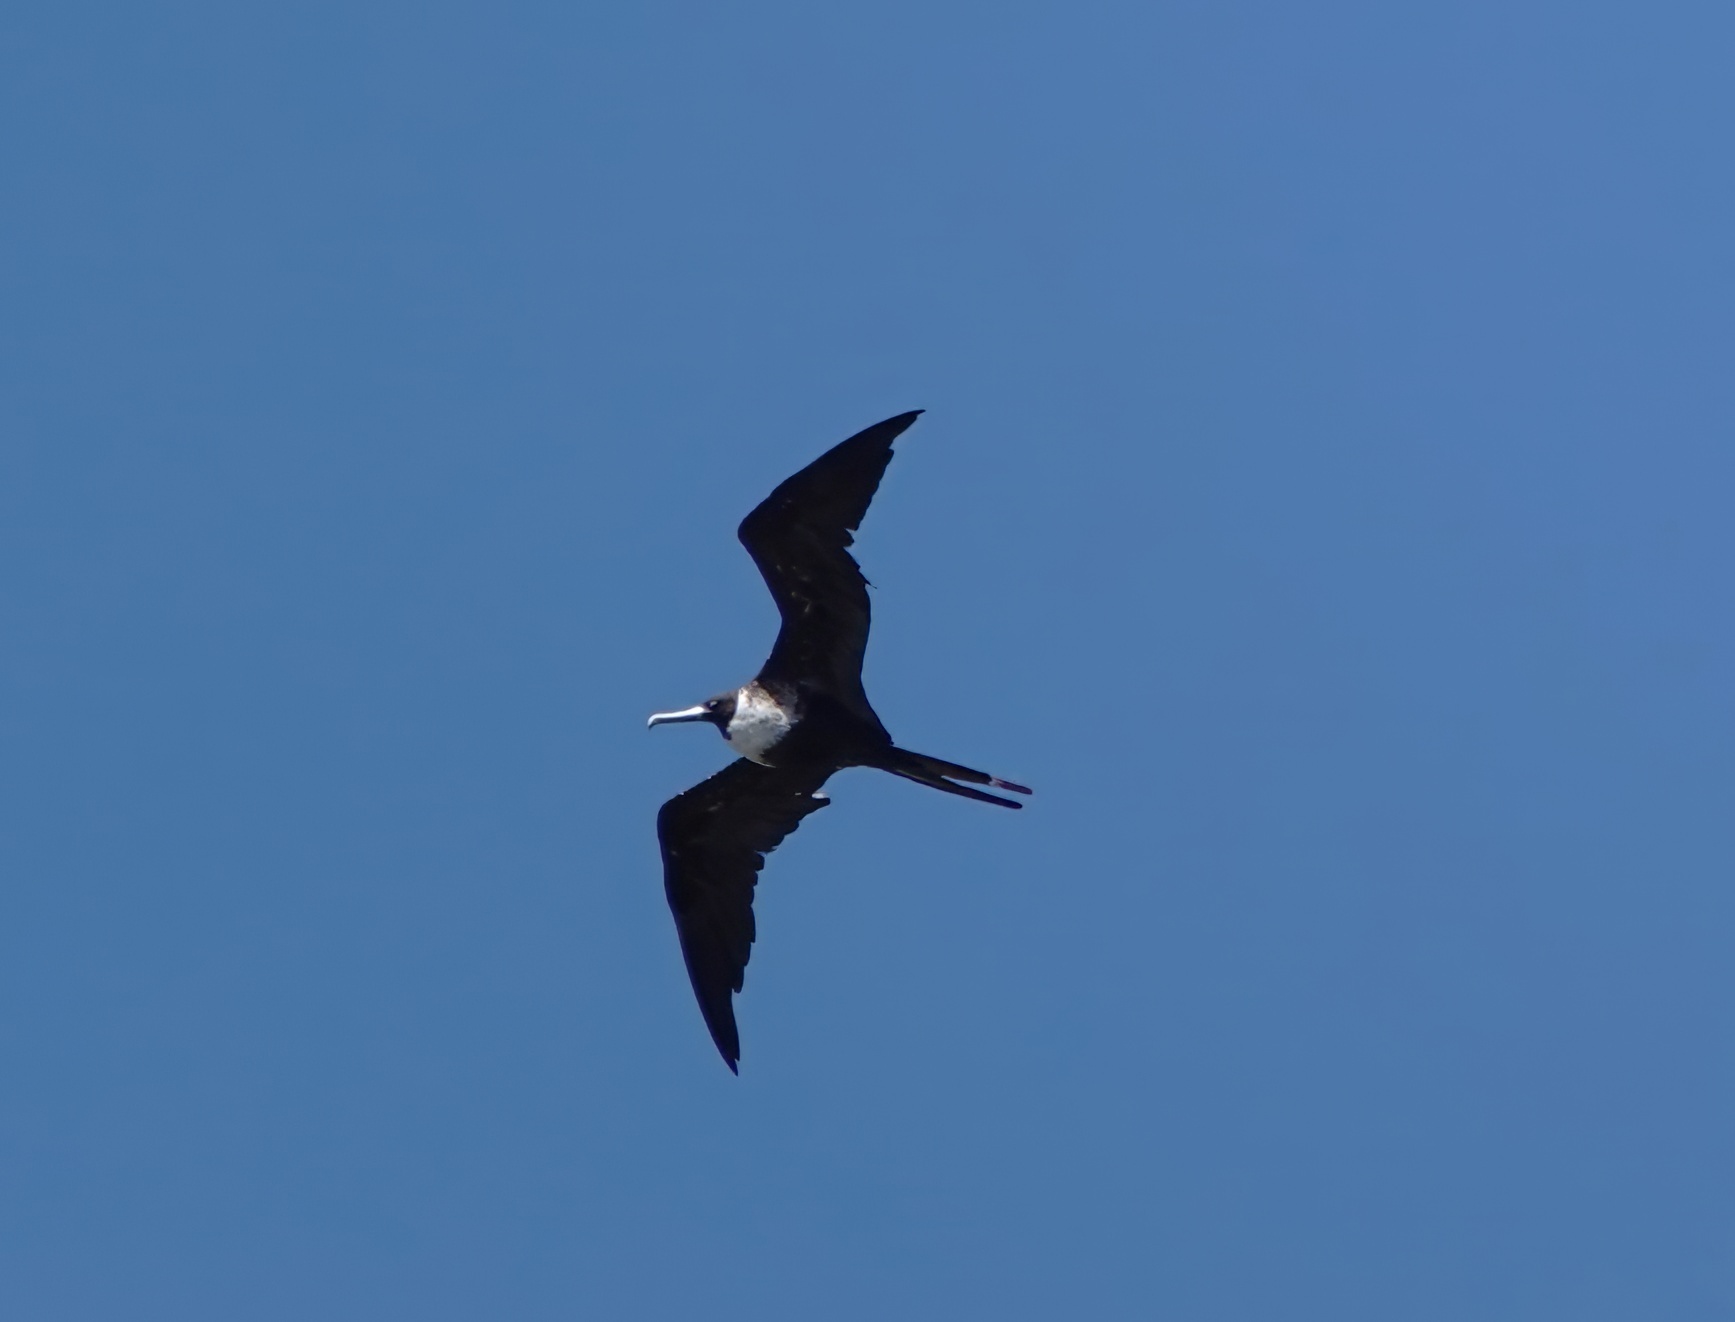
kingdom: Animalia
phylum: Chordata
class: Aves
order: Suliformes
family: Fregatidae
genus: Fregata
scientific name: Fregata magnificens
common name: Magnificent frigatebird
